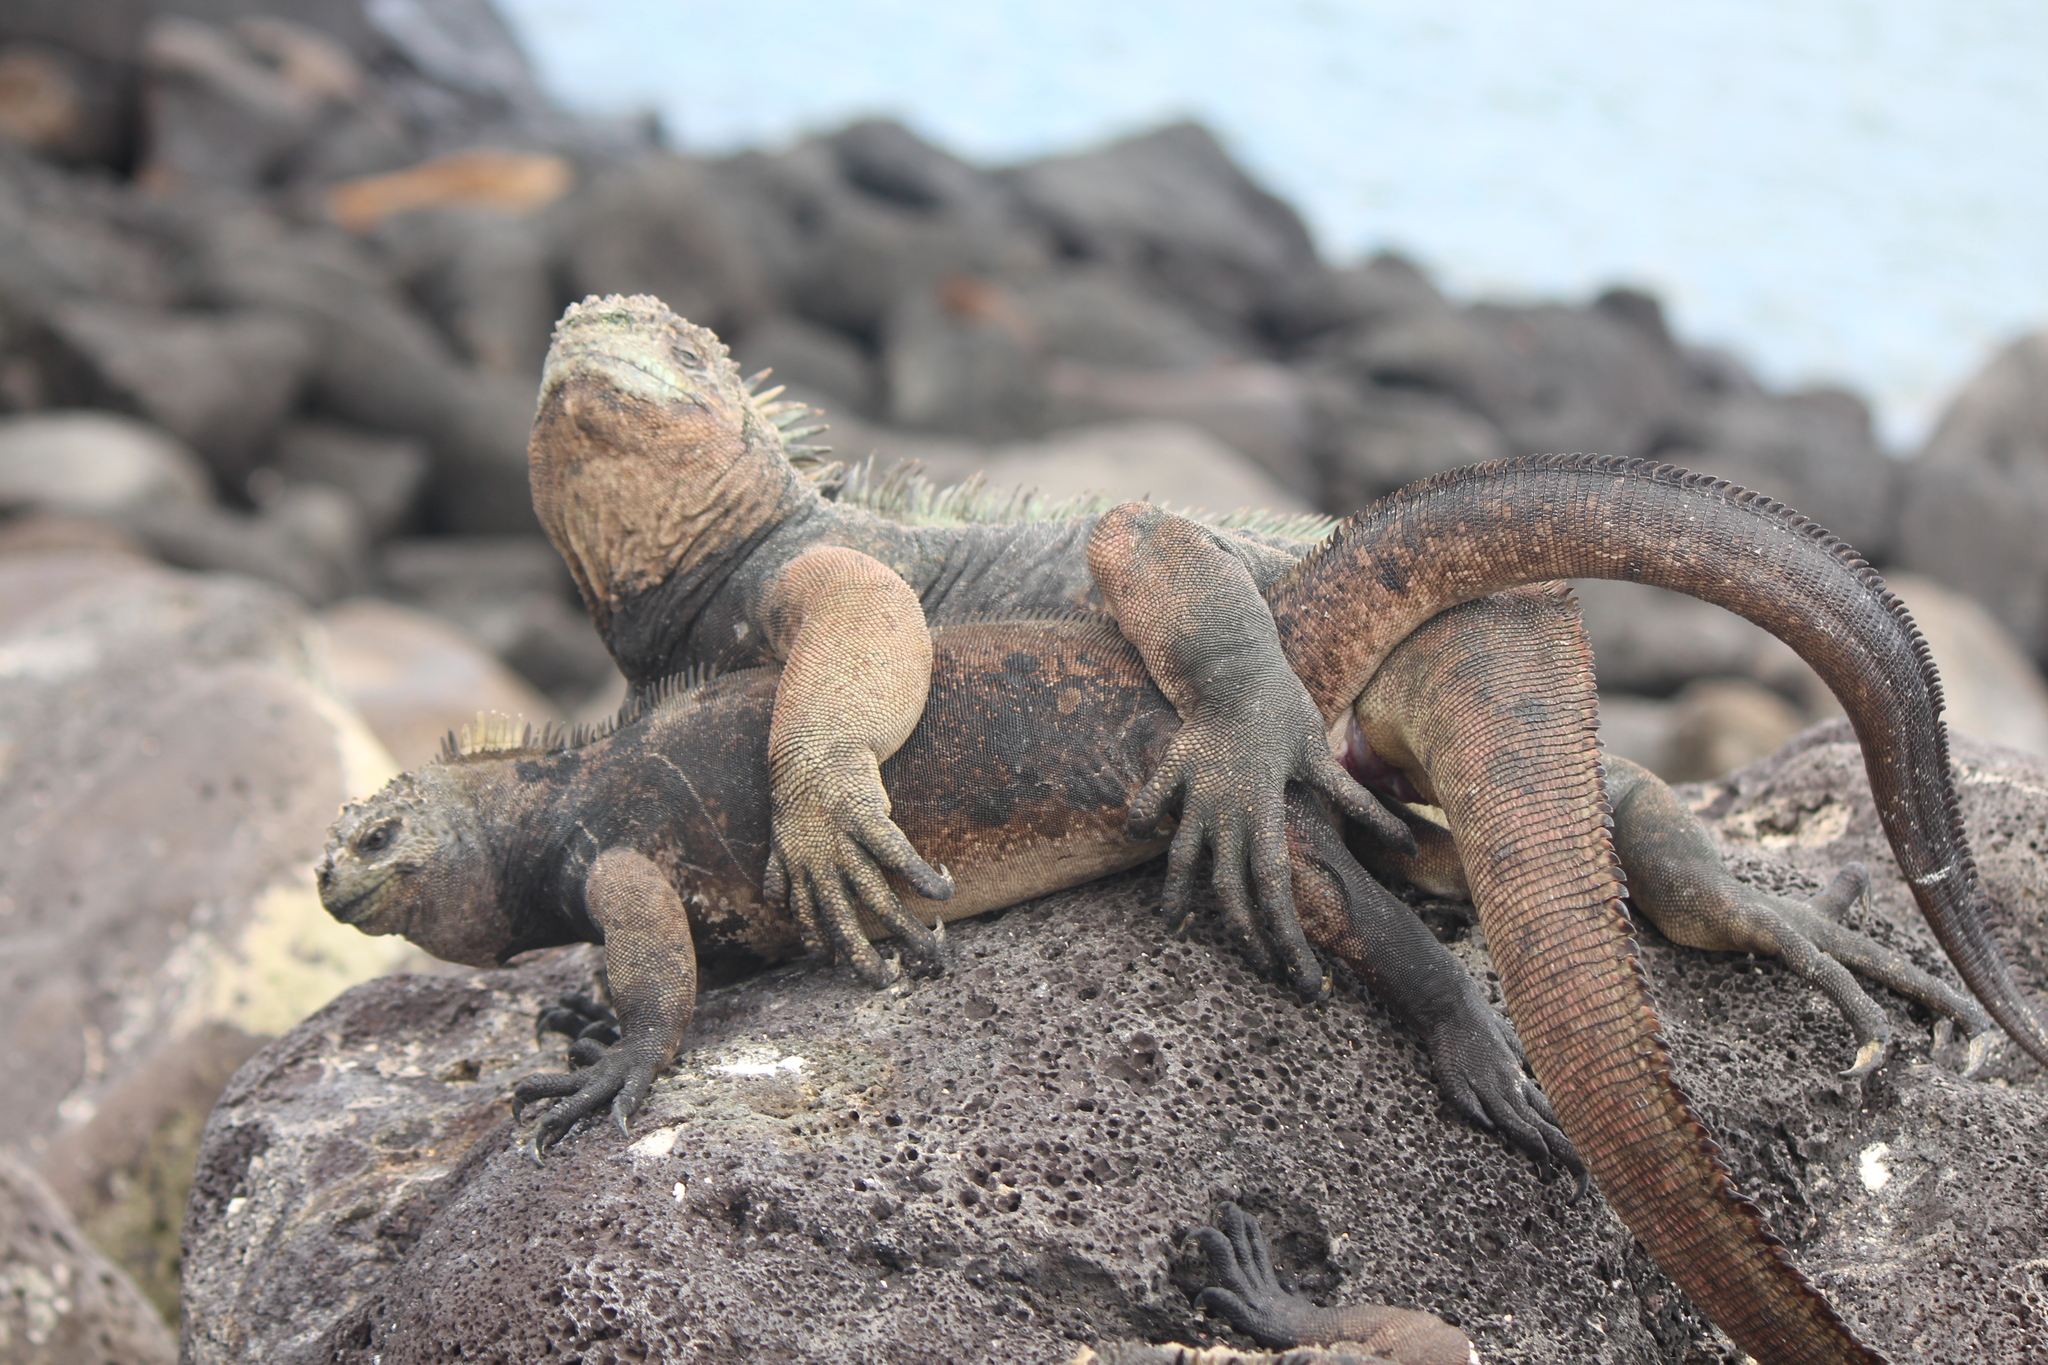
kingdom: Animalia
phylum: Chordata
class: Squamata
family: Iguanidae
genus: Amblyrhynchus
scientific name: Amblyrhynchus cristatus
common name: Marine iguana
